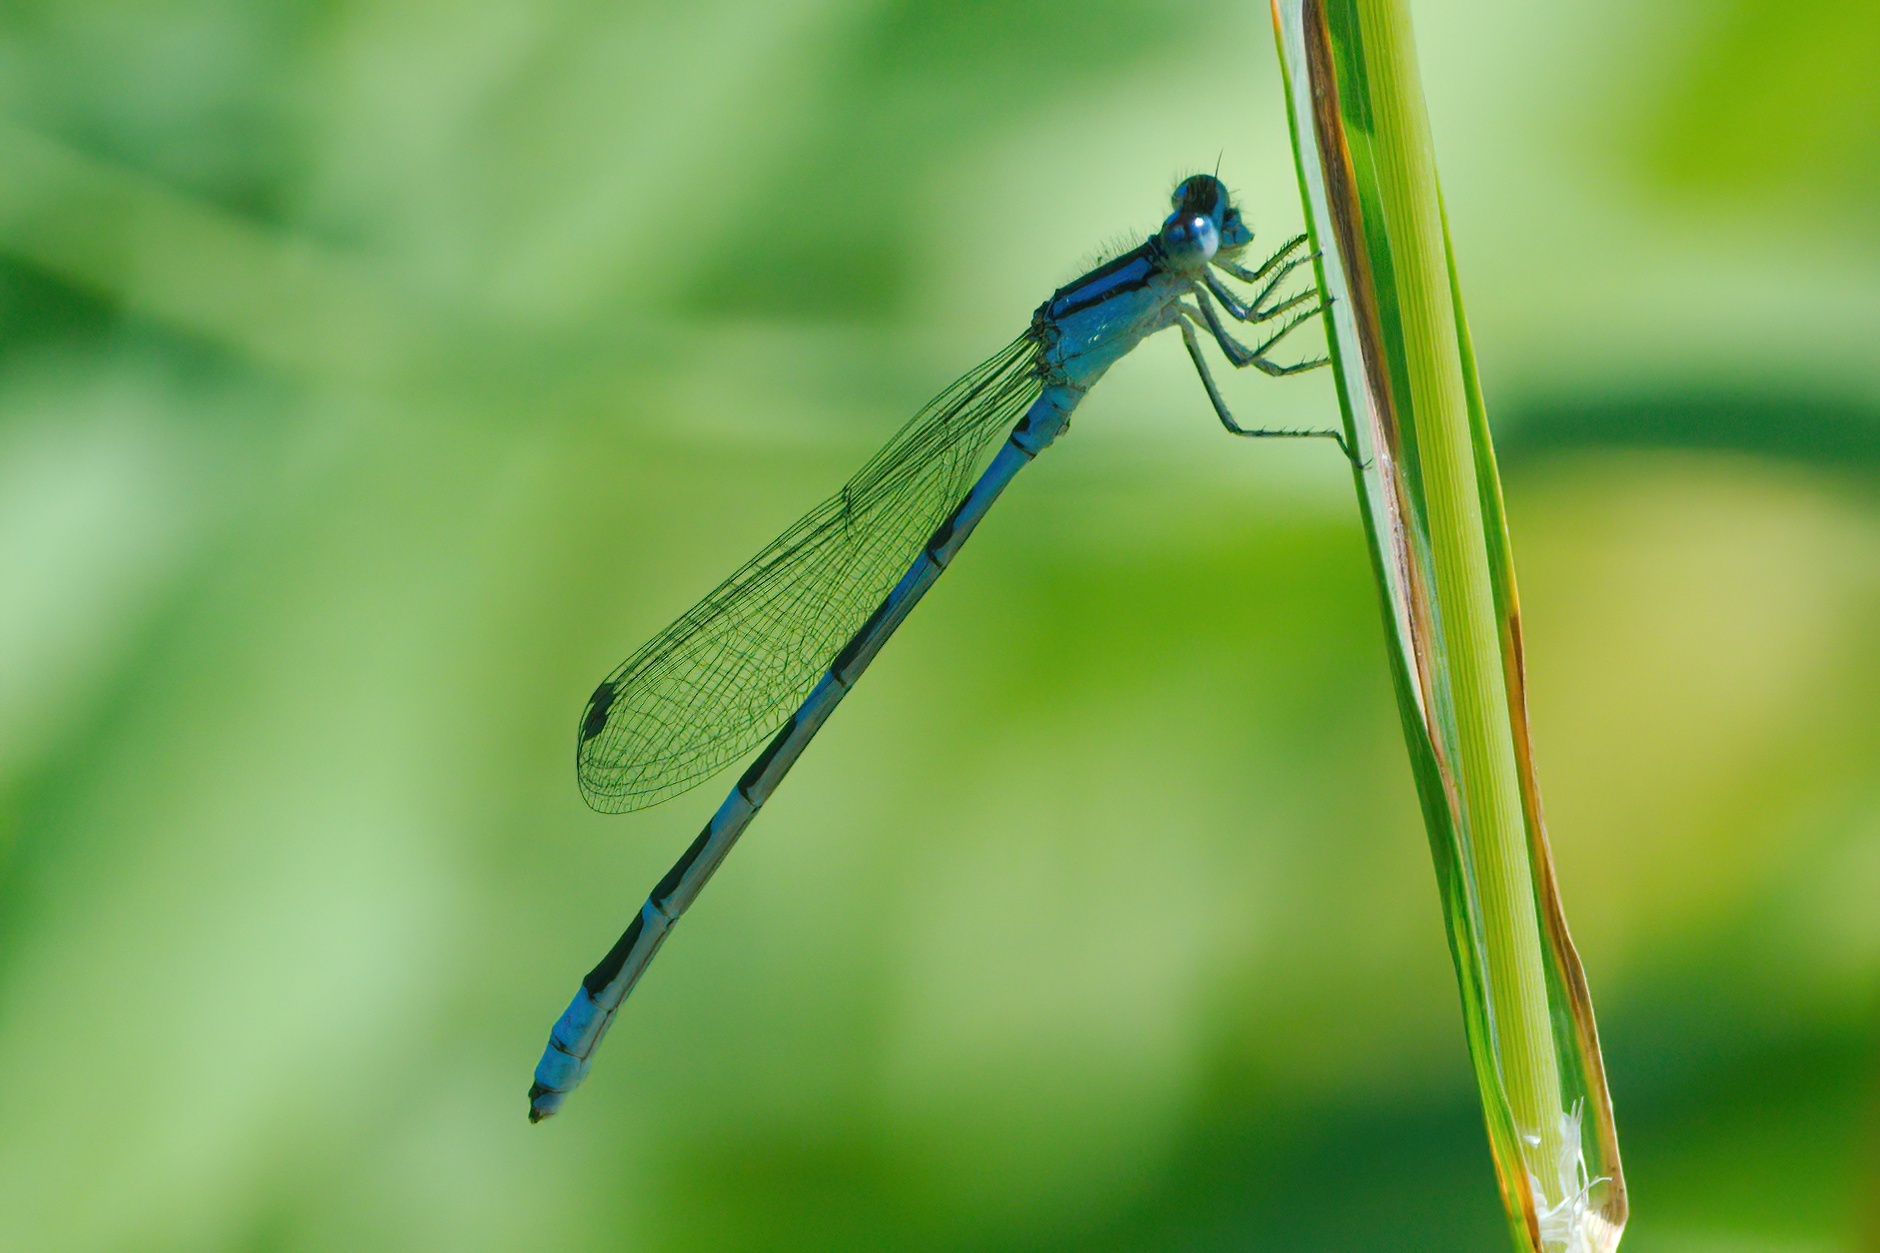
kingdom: Animalia
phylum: Arthropoda
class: Insecta
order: Odonata
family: Coenagrionidae
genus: Enallagma
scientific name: Enallagma carunculatum
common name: Tule bluet
